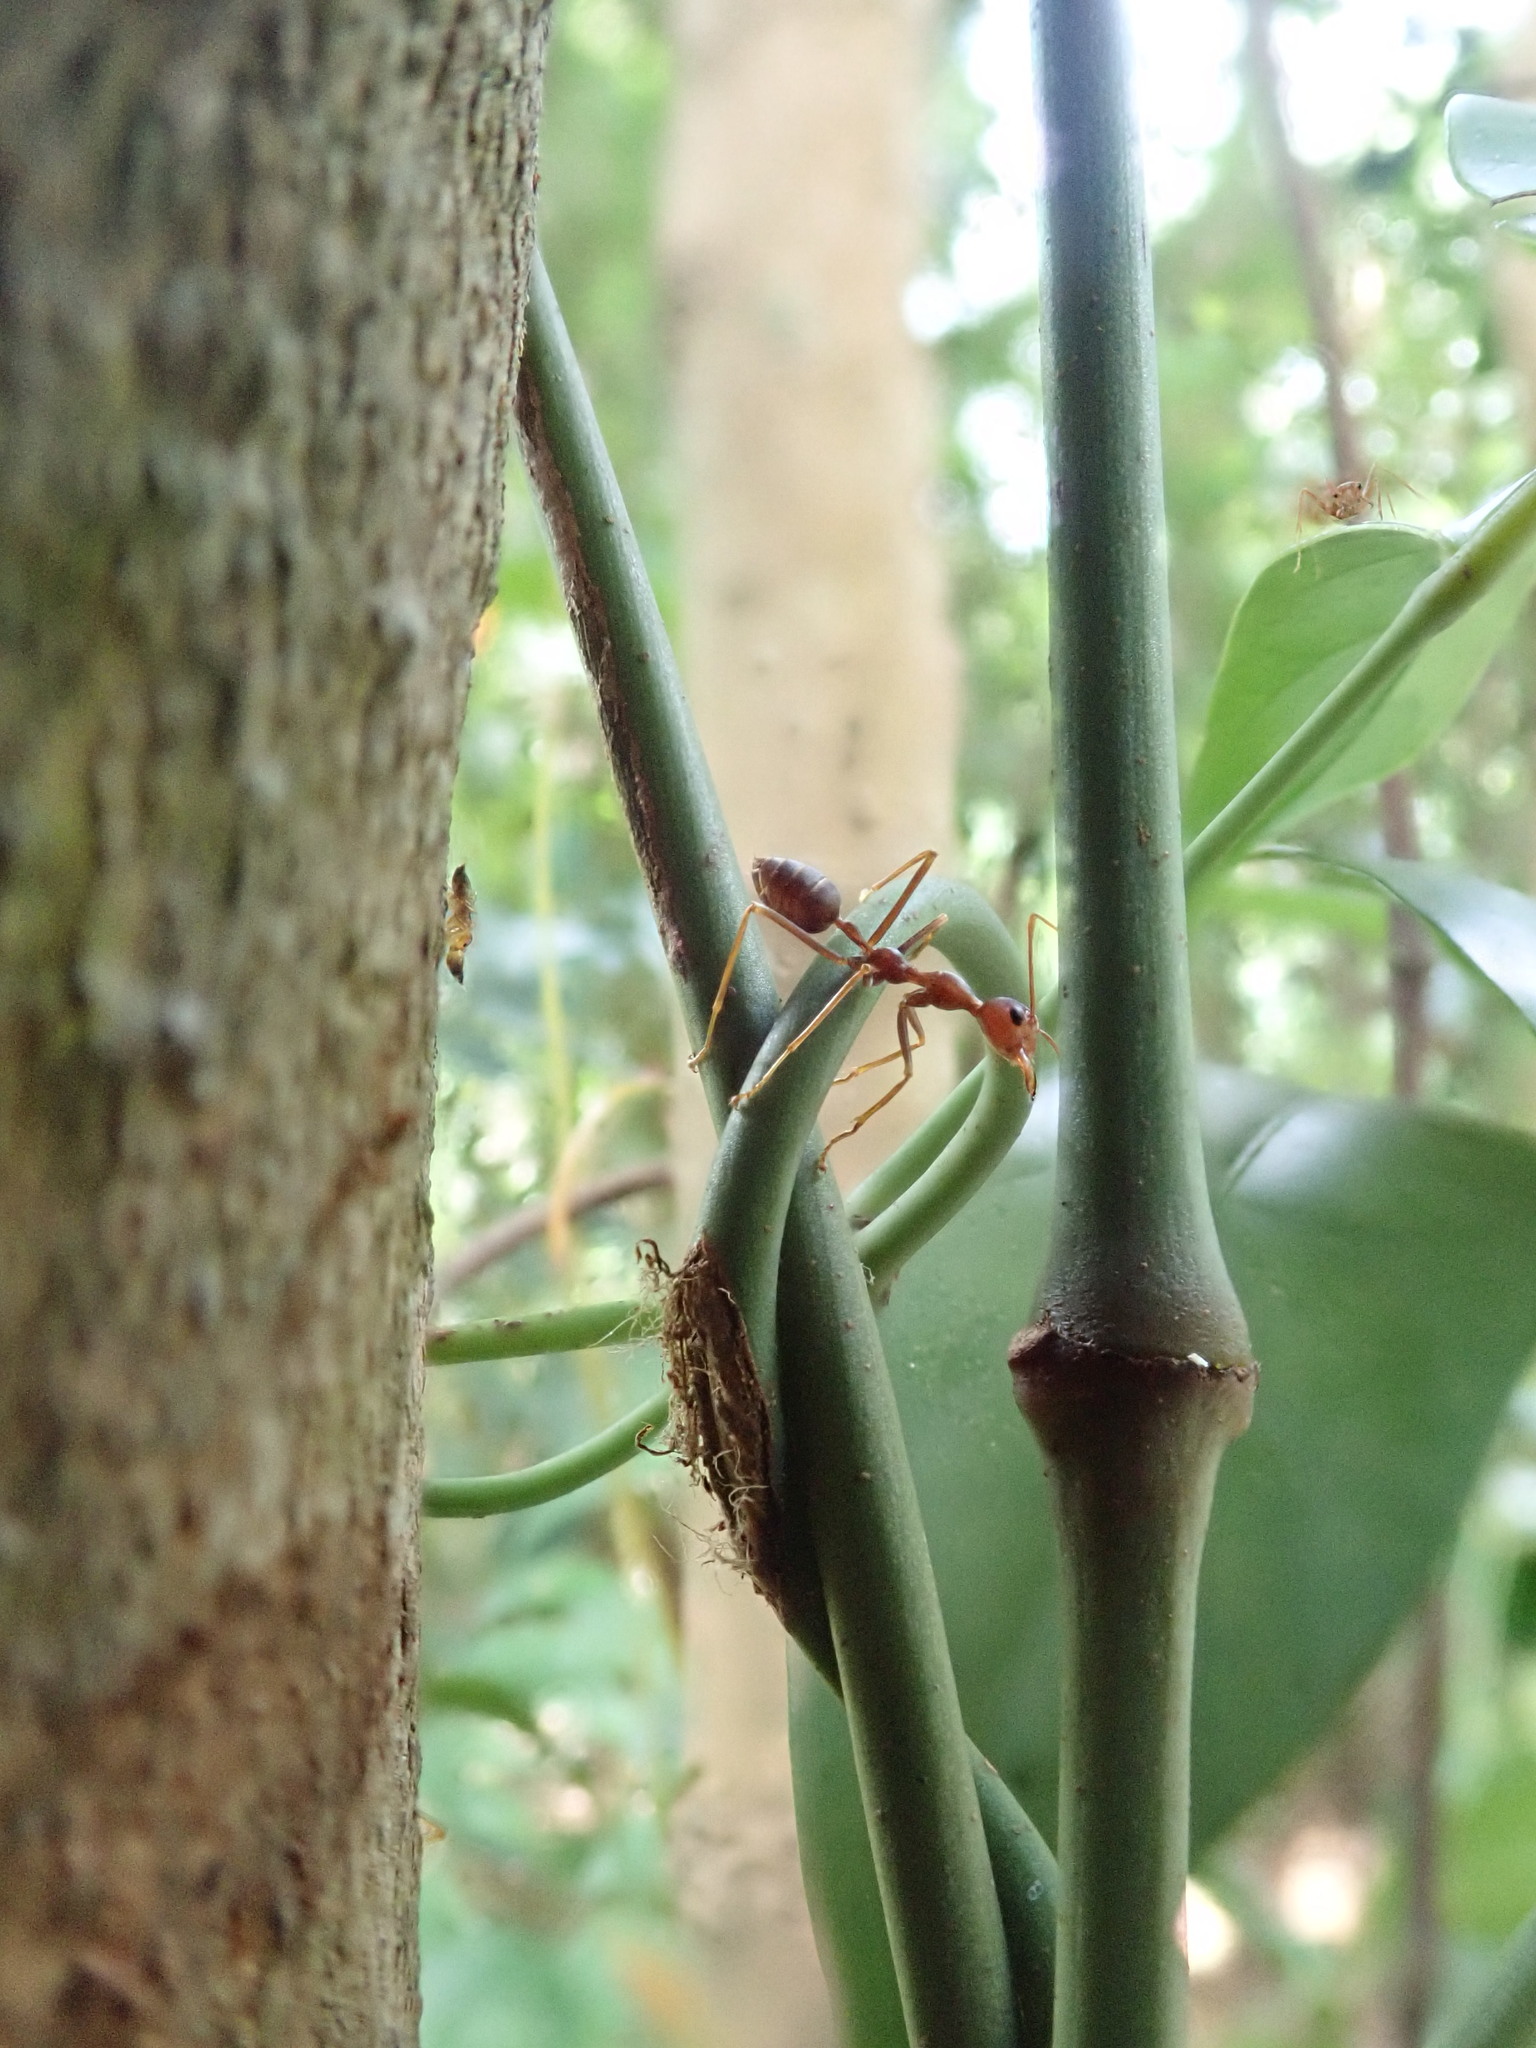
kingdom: Animalia
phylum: Arthropoda
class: Insecta
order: Hymenoptera
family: Formicidae
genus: Oecophylla
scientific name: Oecophylla smaragdina
